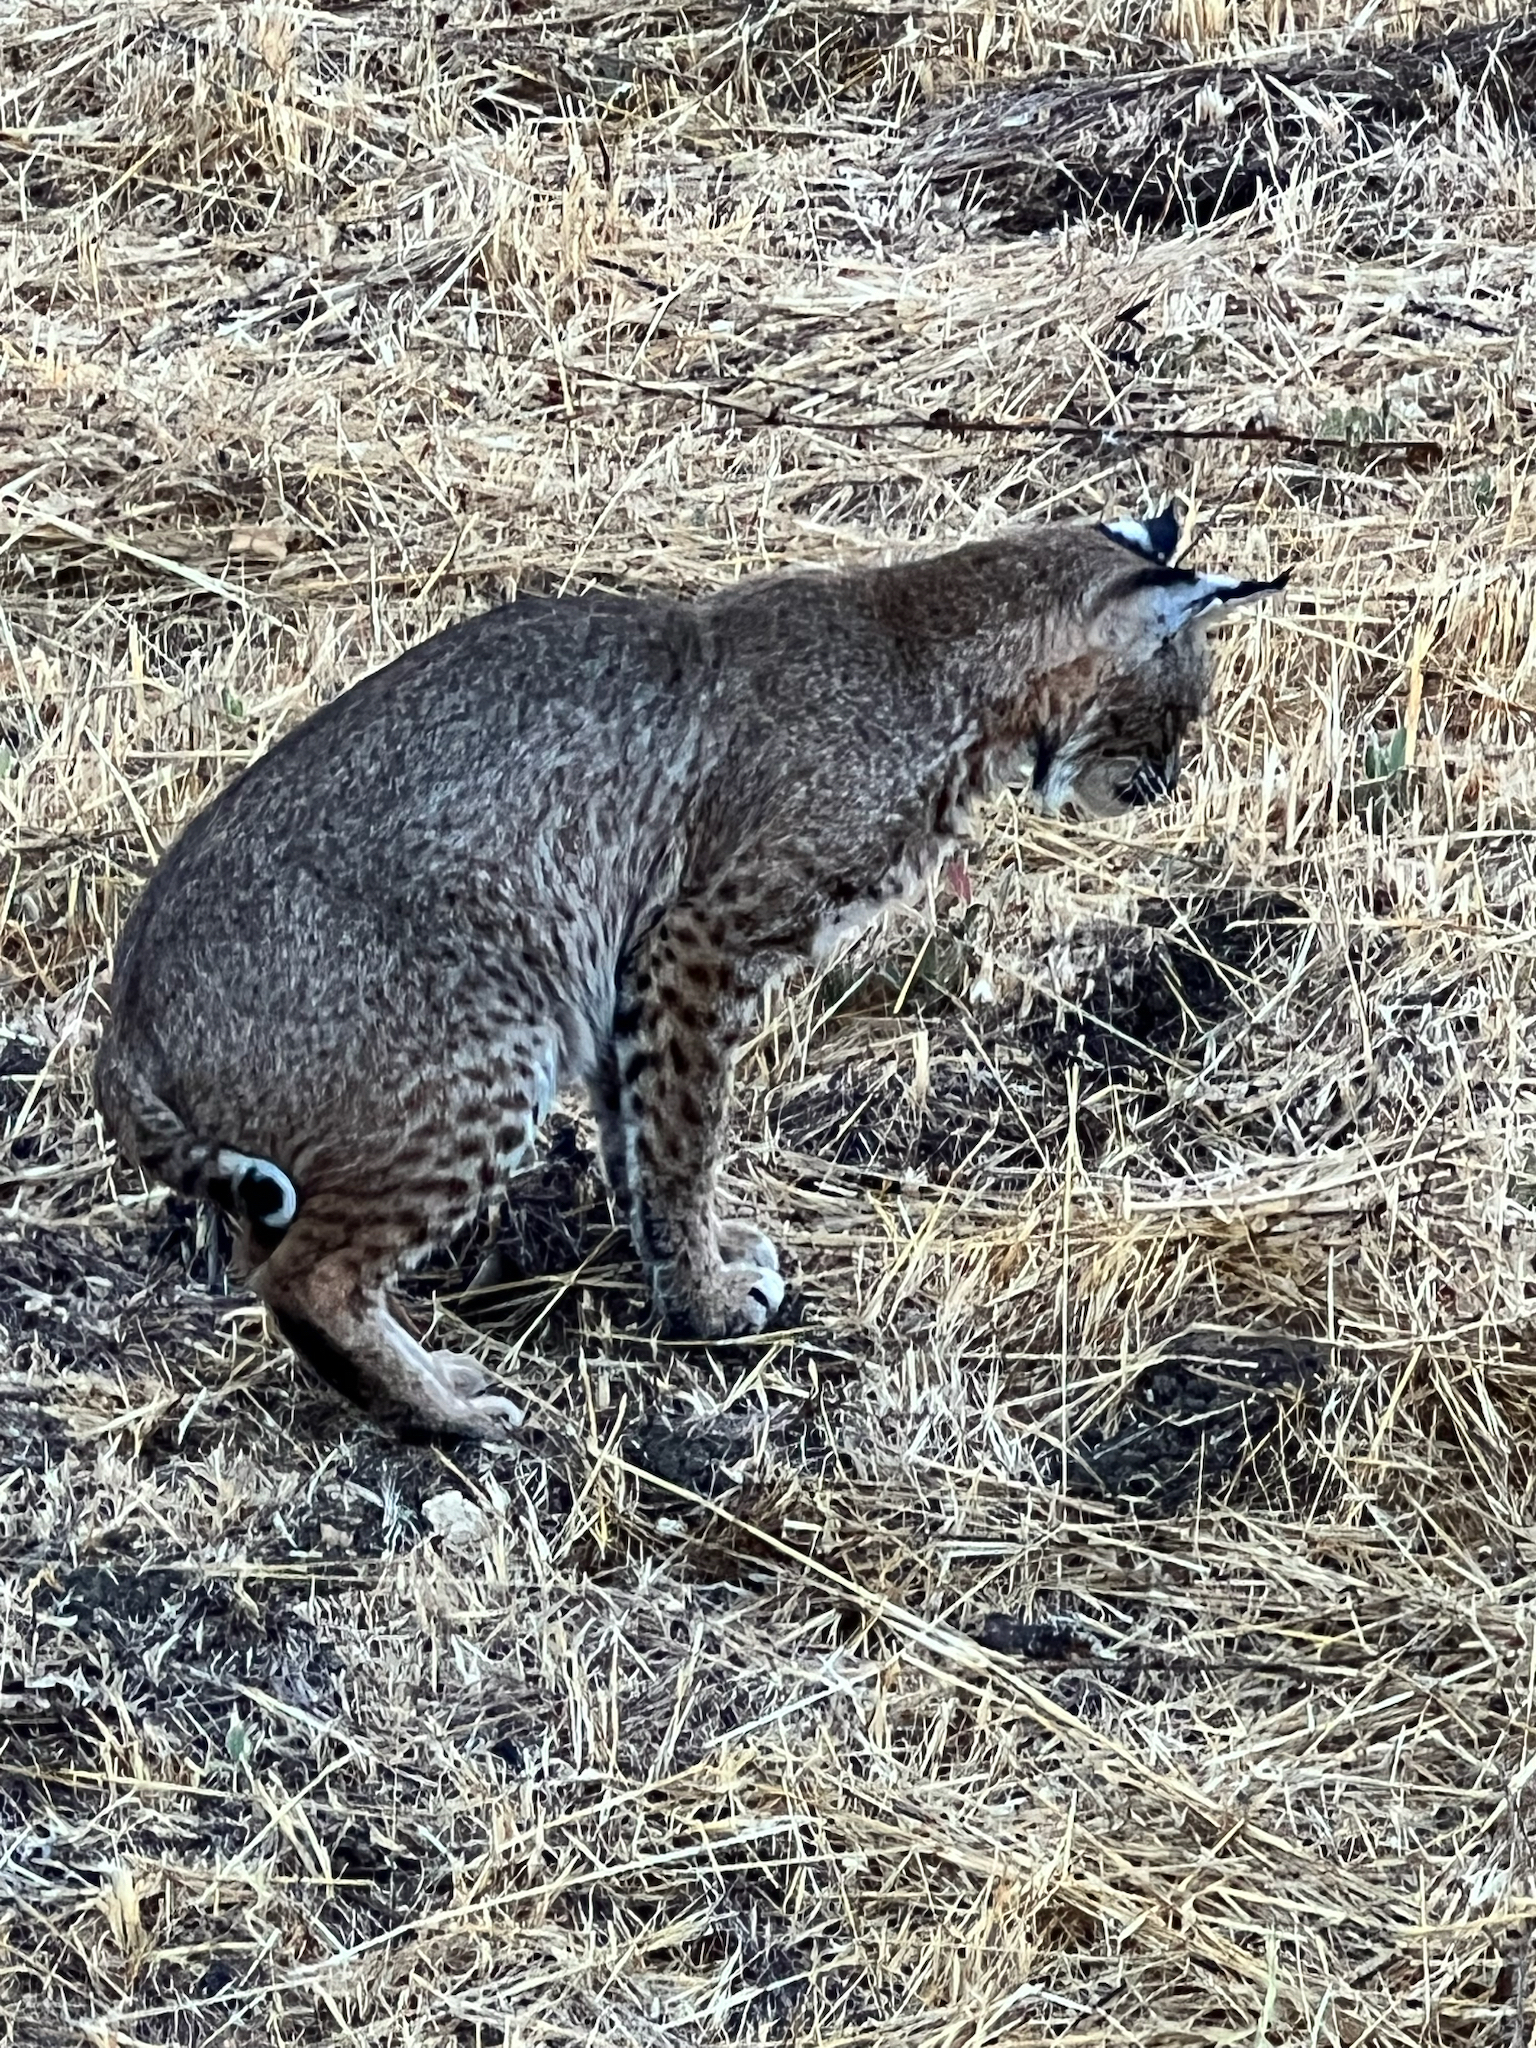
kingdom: Animalia
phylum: Chordata
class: Mammalia
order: Carnivora
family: Felidae
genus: Lynx
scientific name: Lynx rufus
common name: Bobcat
